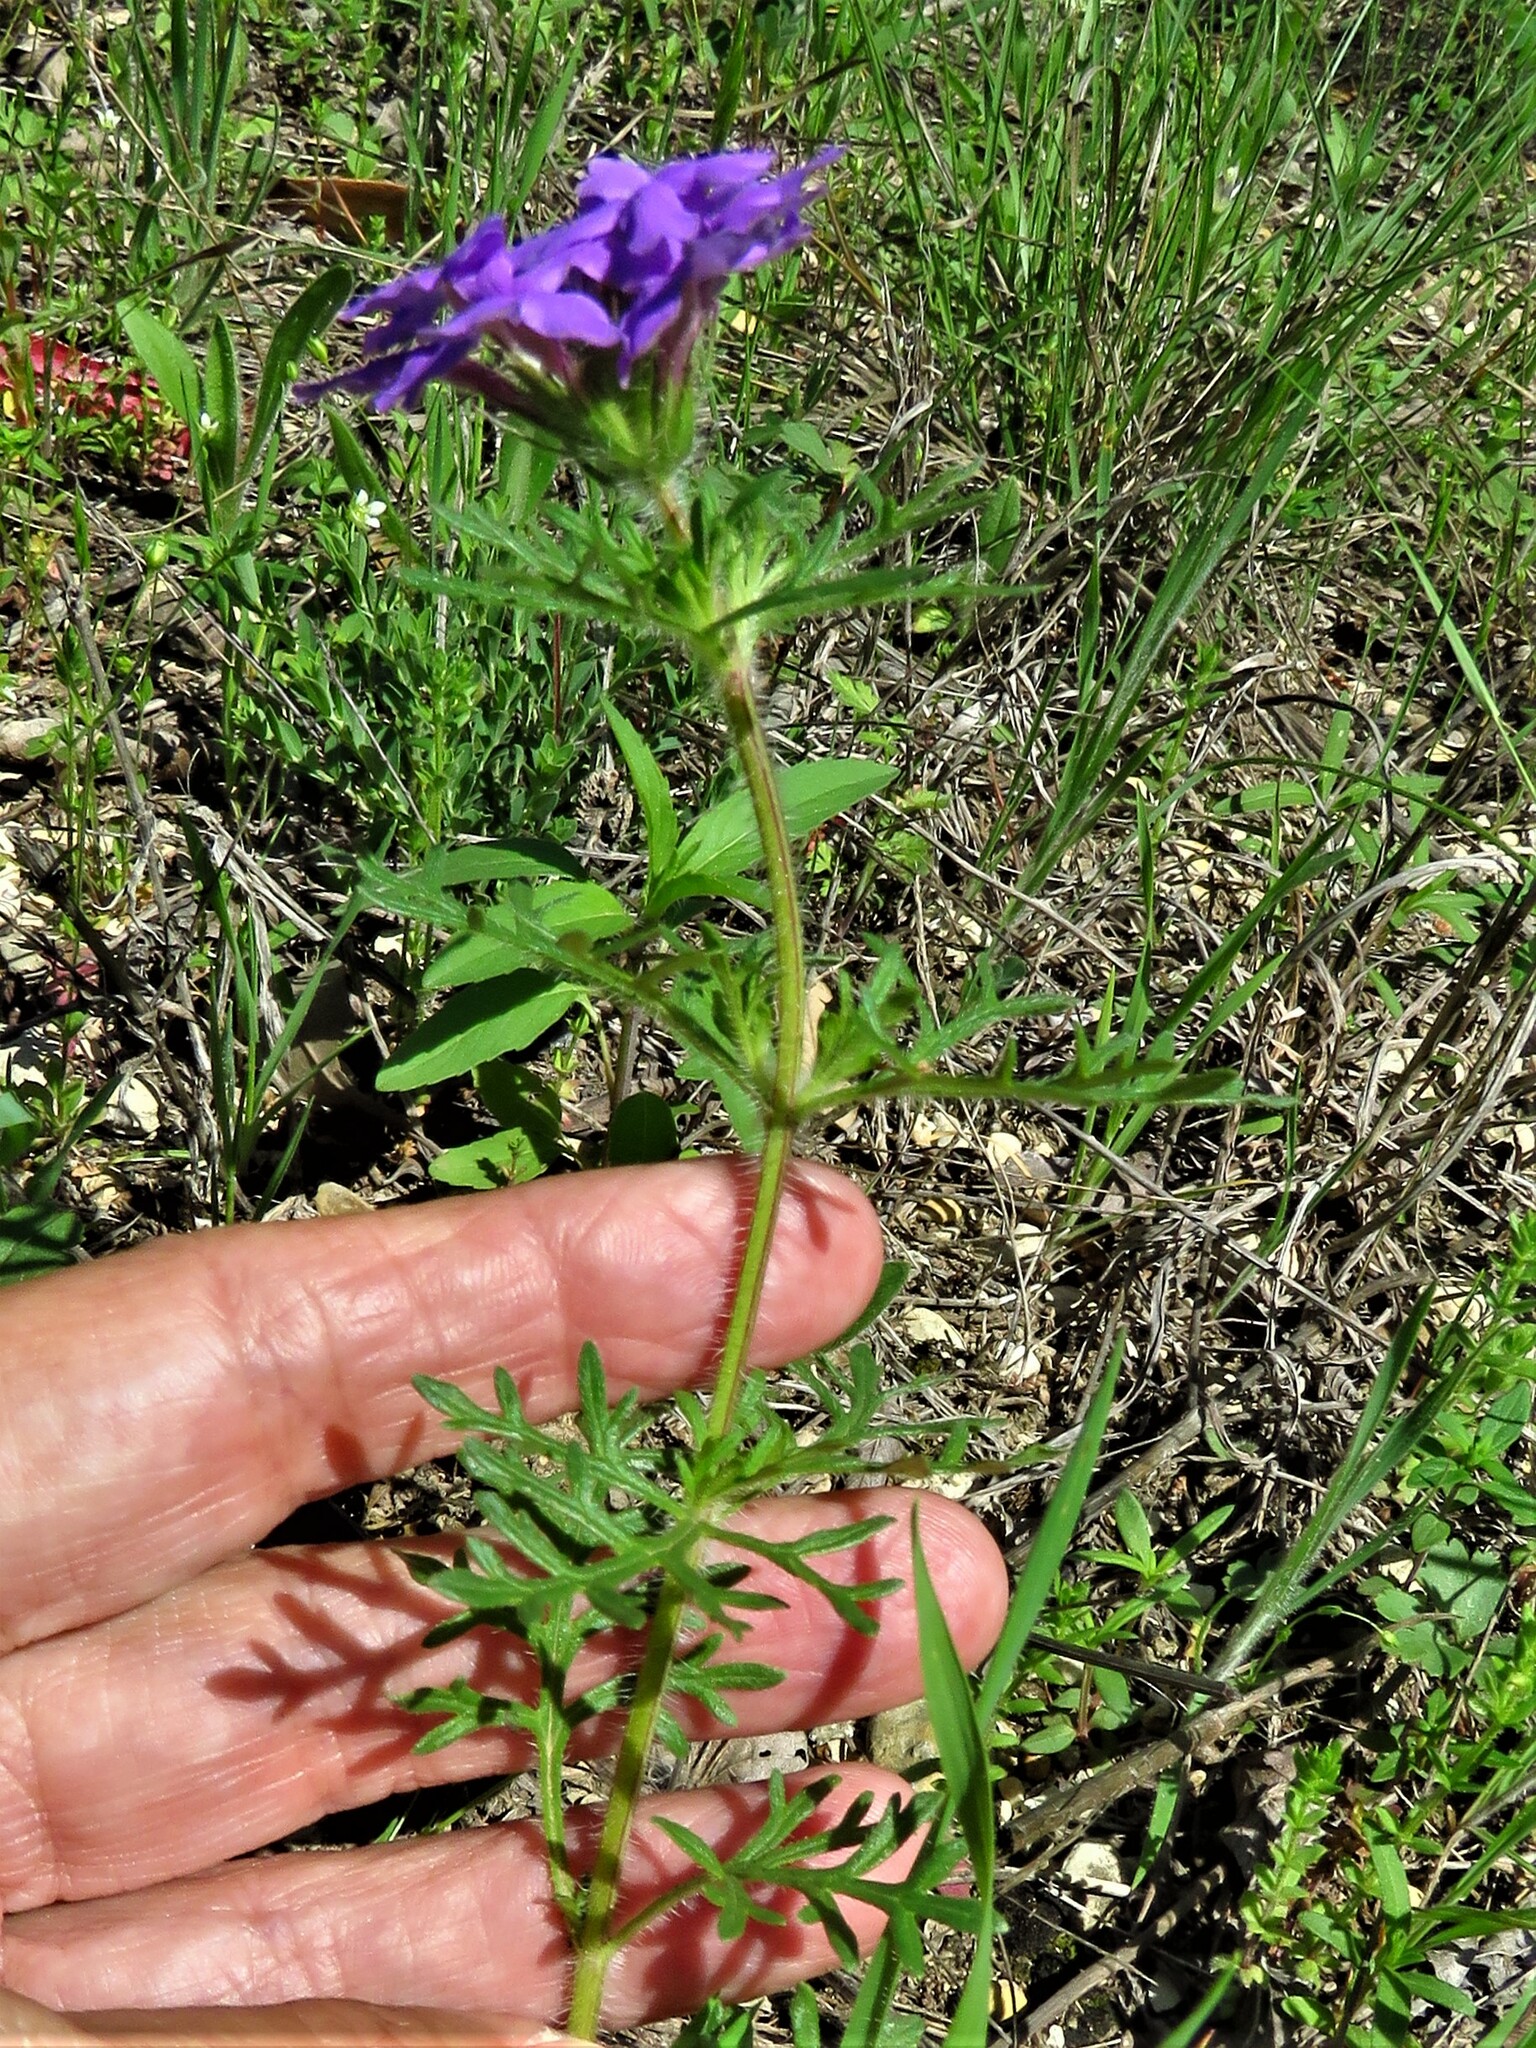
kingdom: Plantae
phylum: Tracheophyta
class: Magnoliopsida
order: Lamiales
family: Verbenaceae
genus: Verbena
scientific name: Verbena bipinnatifida
